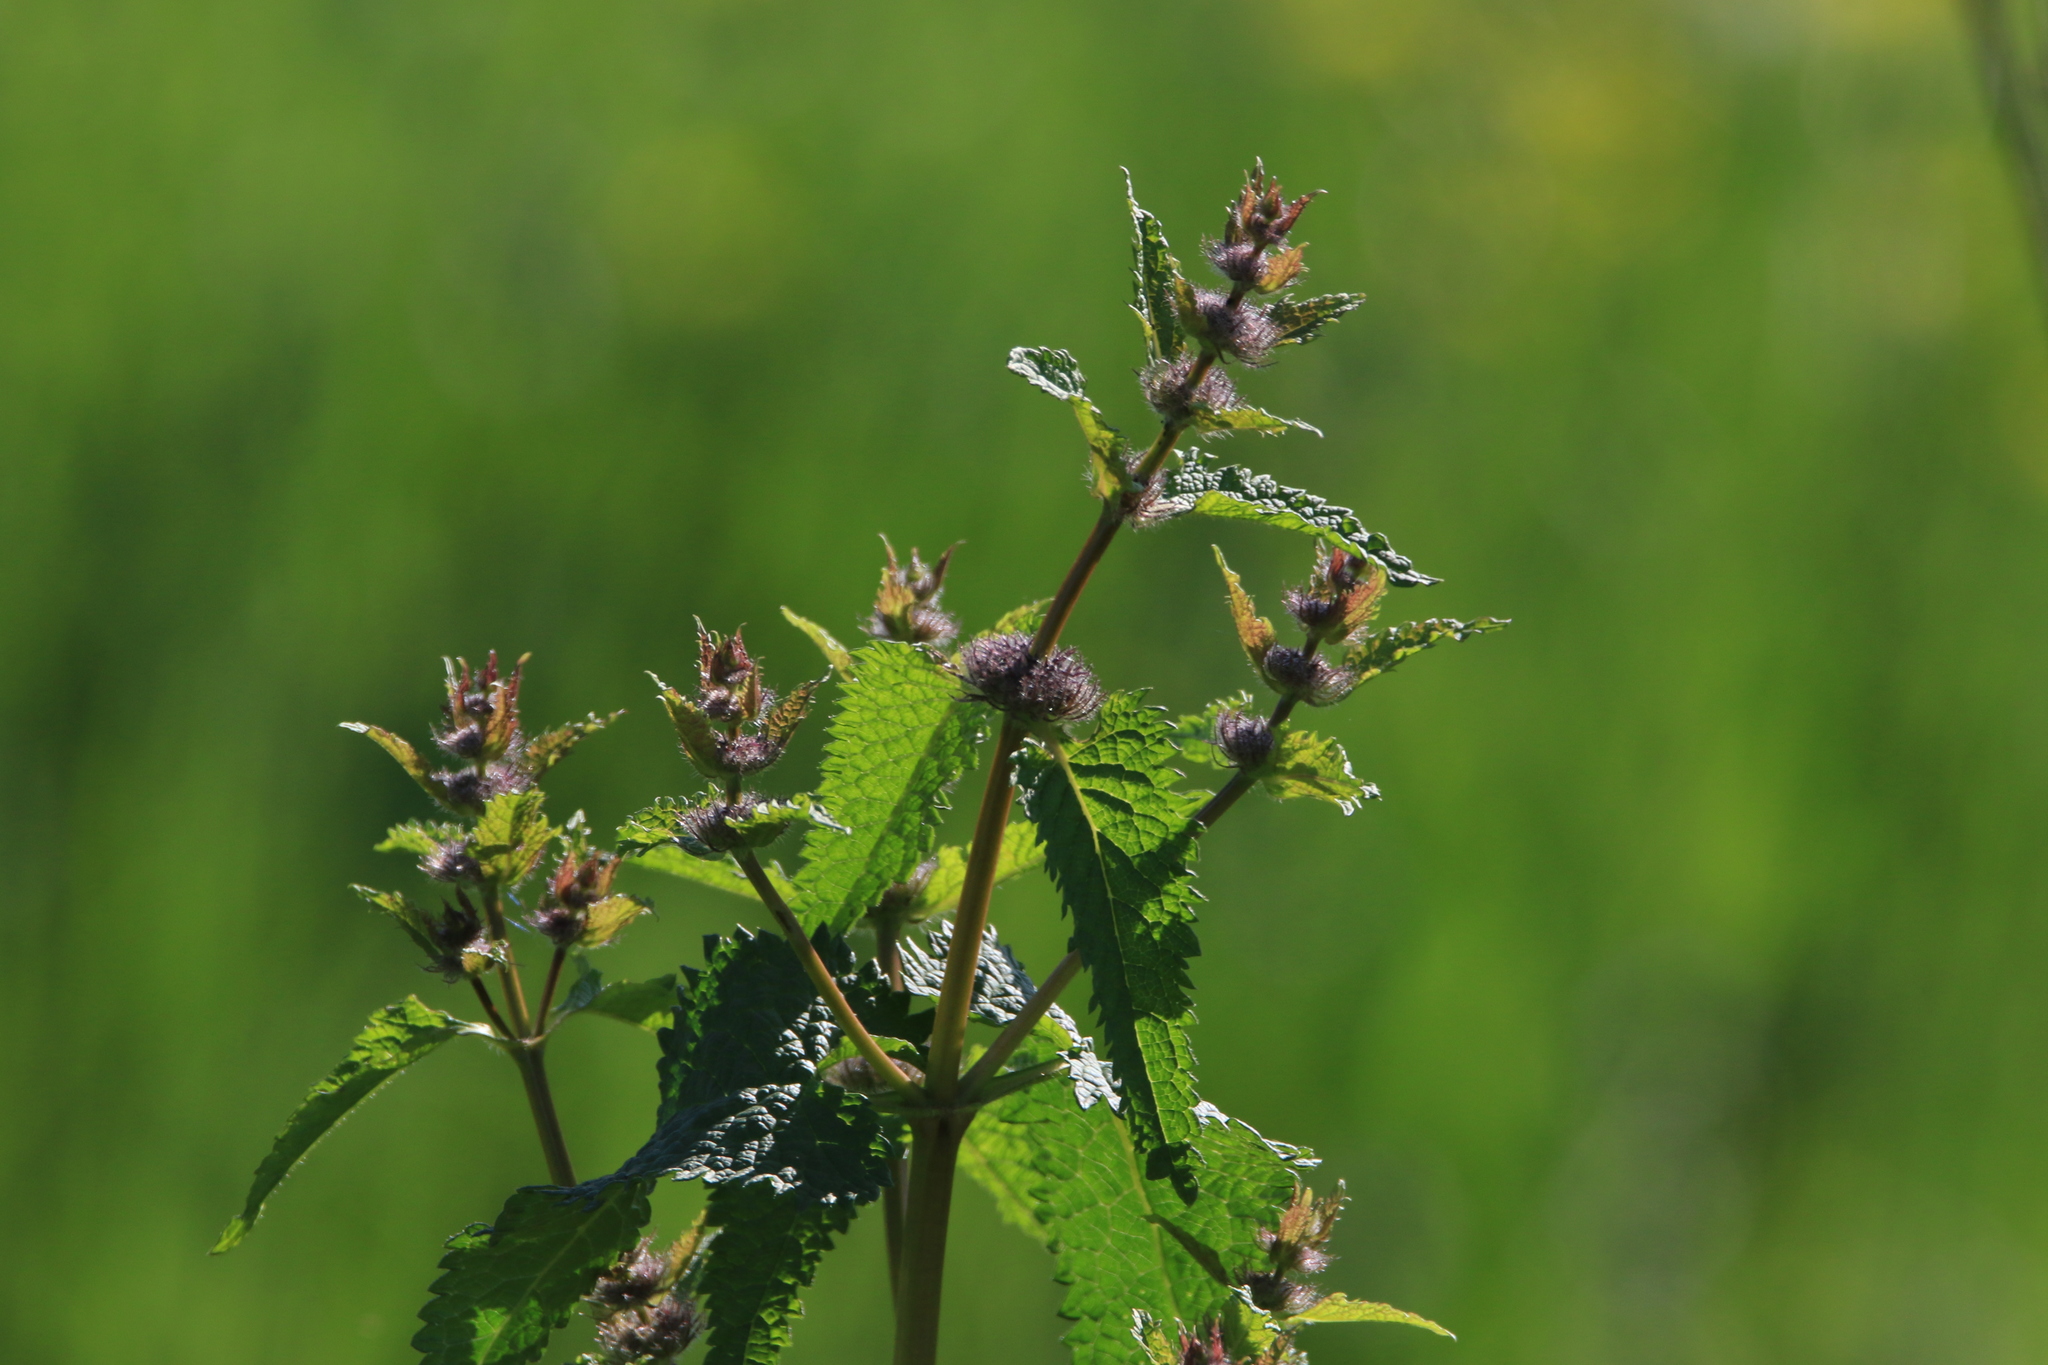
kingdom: Plantae
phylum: Tracheophyta
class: Magnoliopsida
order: Lamiales
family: Lamiaceae
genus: Phlomoides
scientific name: Phlomoides tuberosa
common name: Tuberous jerusalem sage
